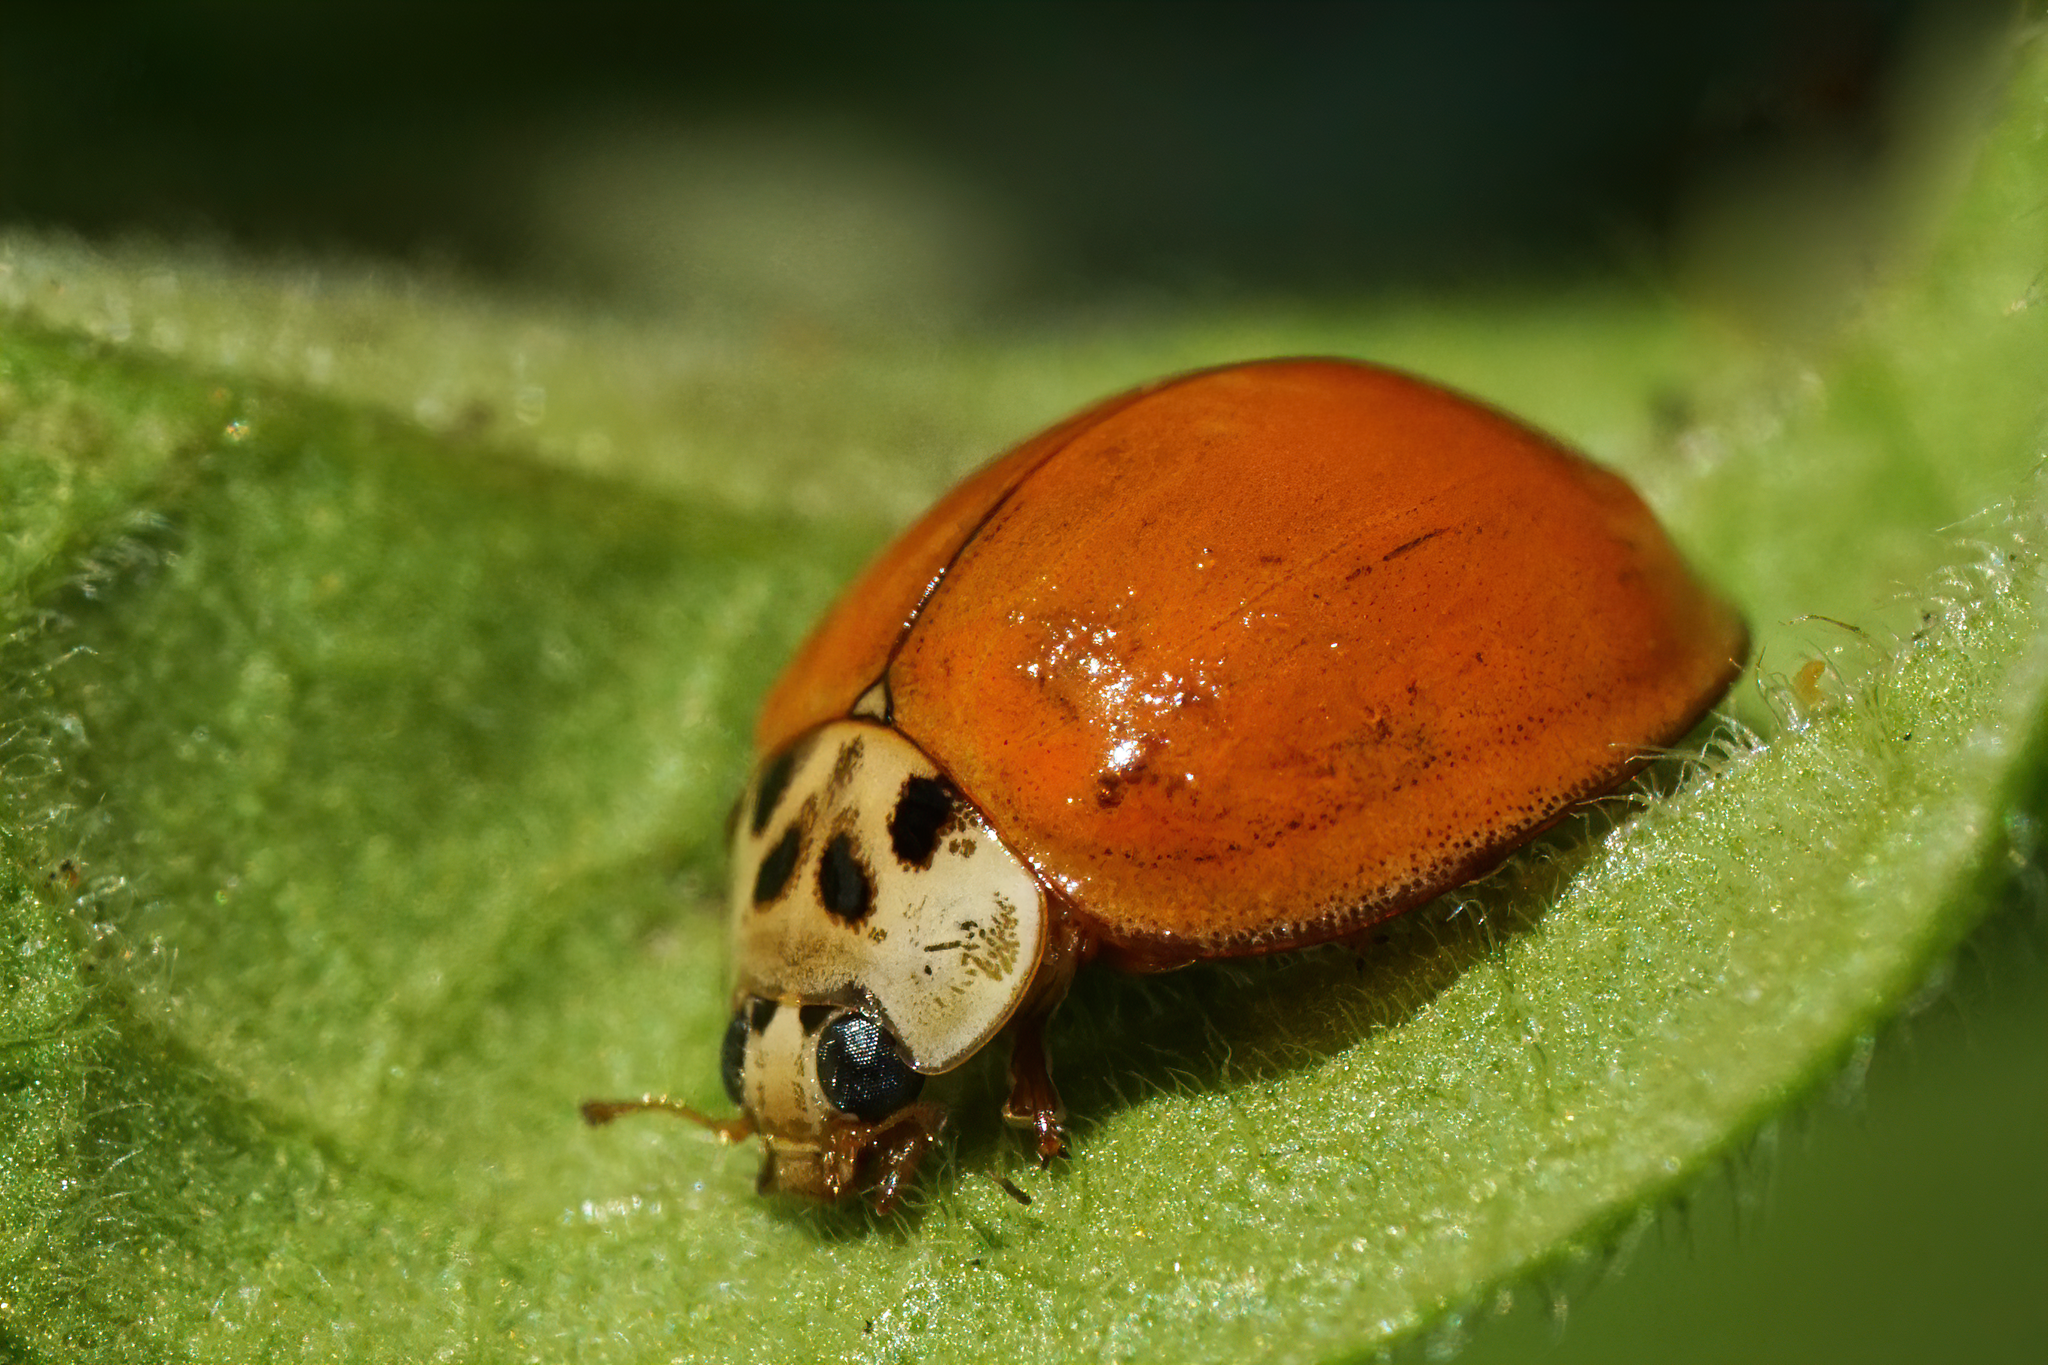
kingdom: Animalia
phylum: Arthropoda
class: Insecta
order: Coleoptera
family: Coccinellidae
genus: Harmonia
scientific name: Harmonia axyridis
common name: Harlequin ladybird
